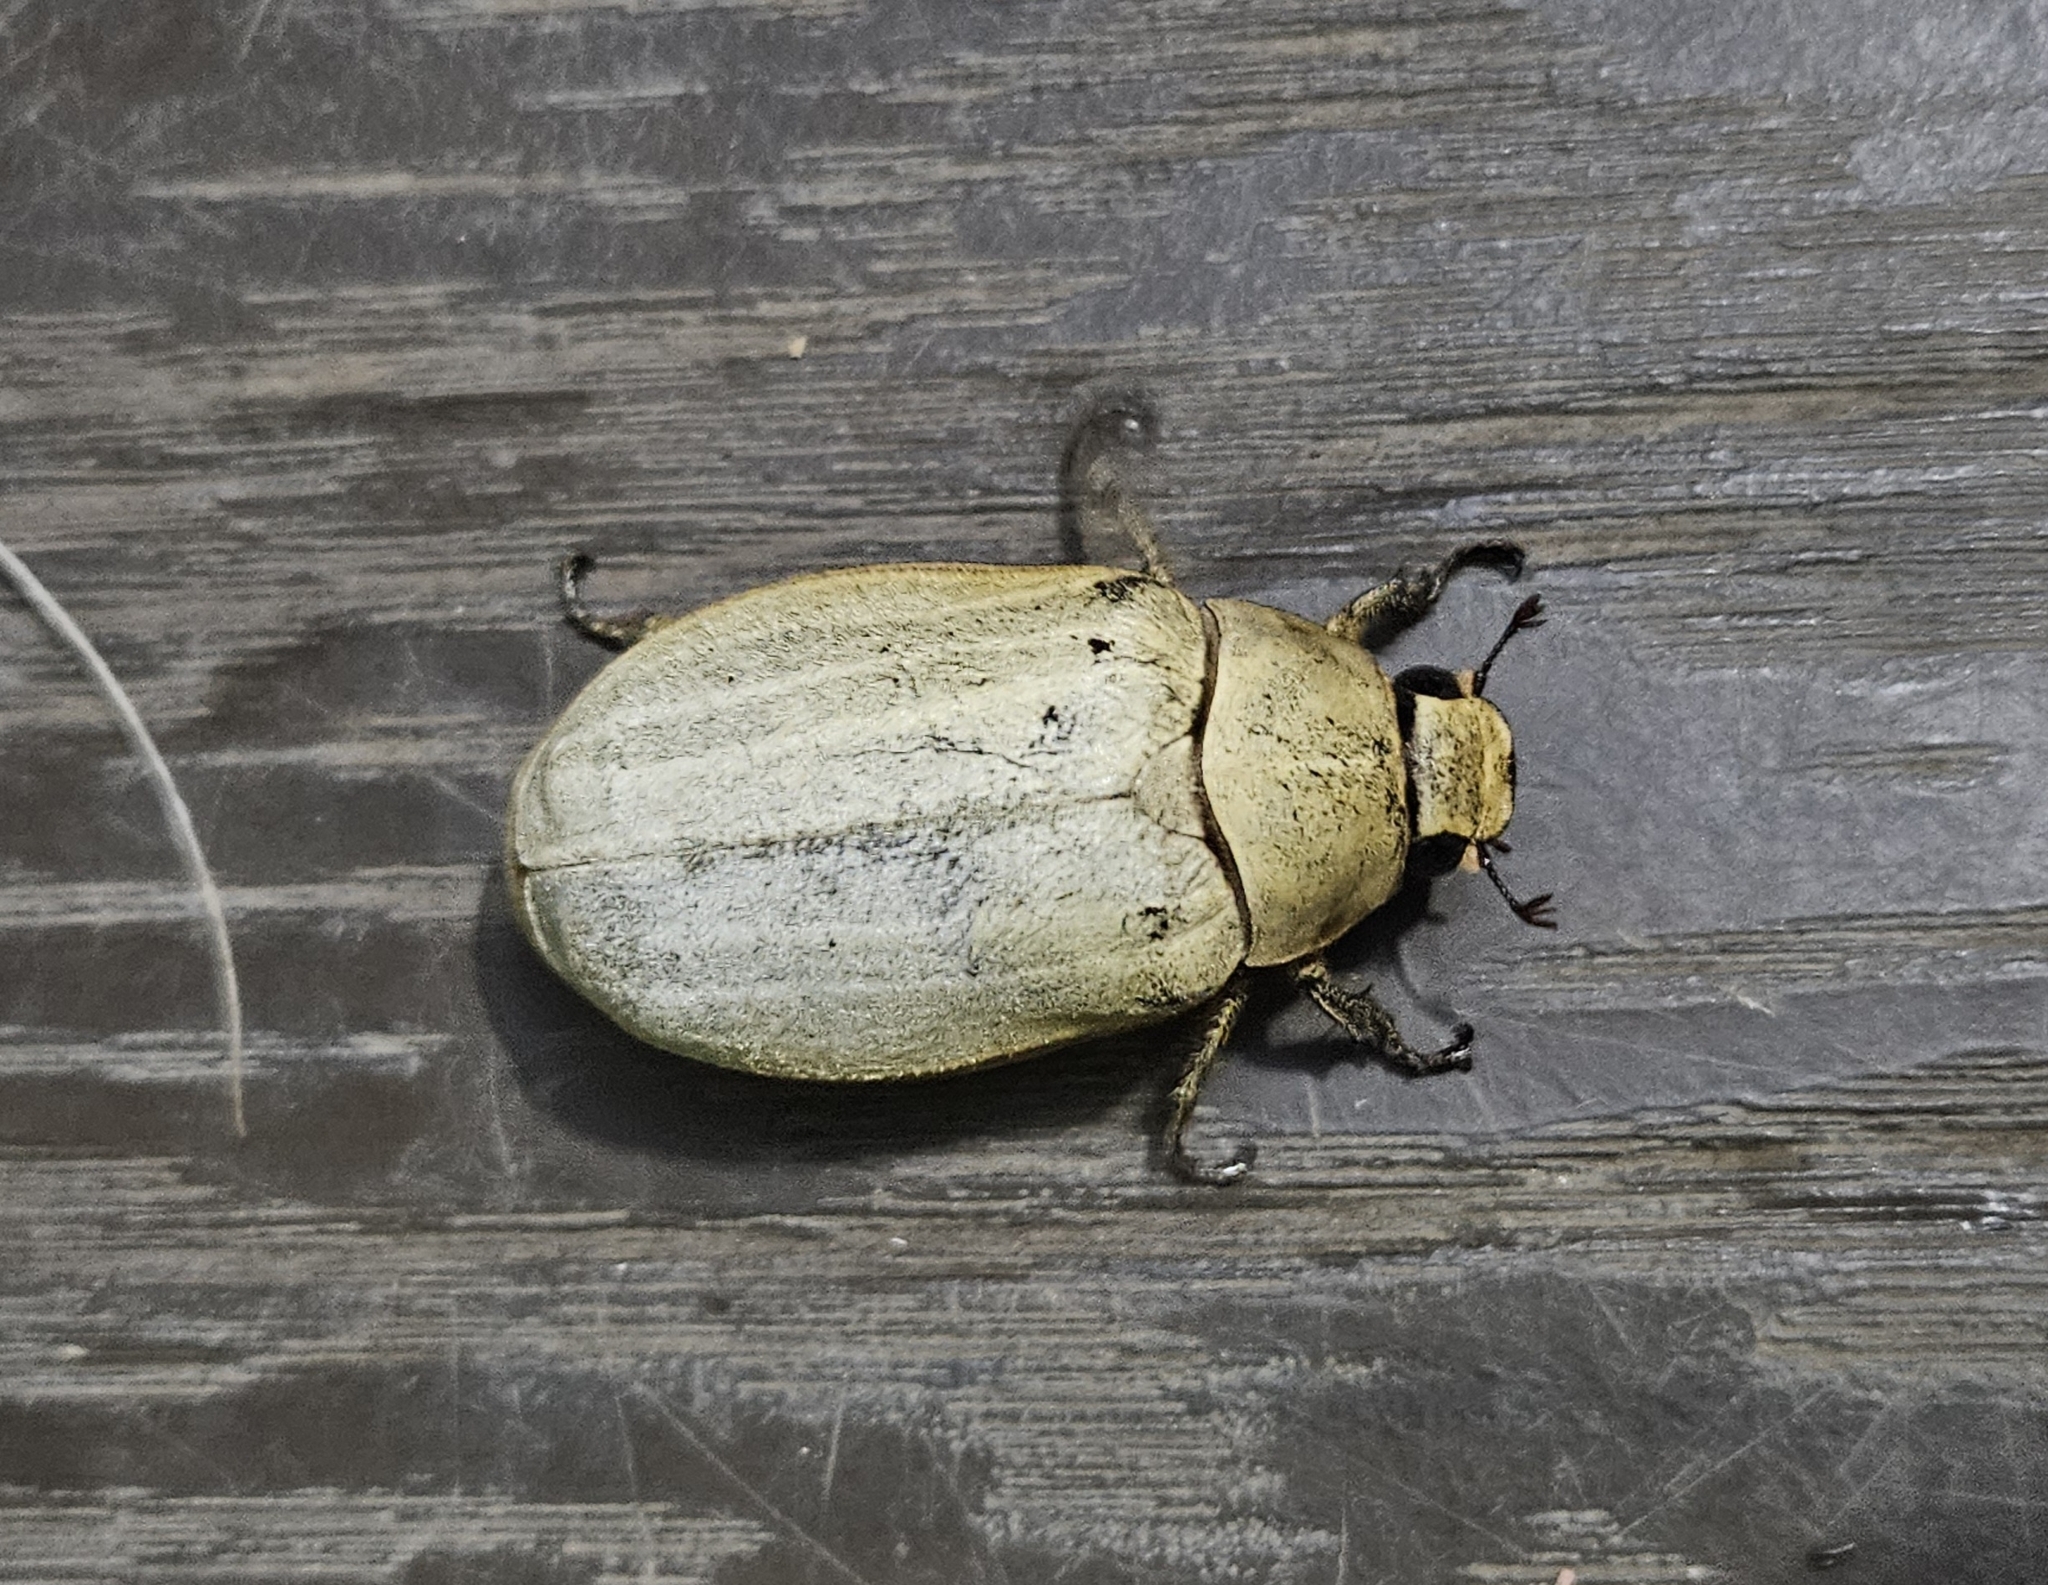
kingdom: Animalia
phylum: Arthropoda
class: Insecta
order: Coleoptera
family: Scarabaeidae
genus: Lepidiota
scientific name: Lepidiota stigma
